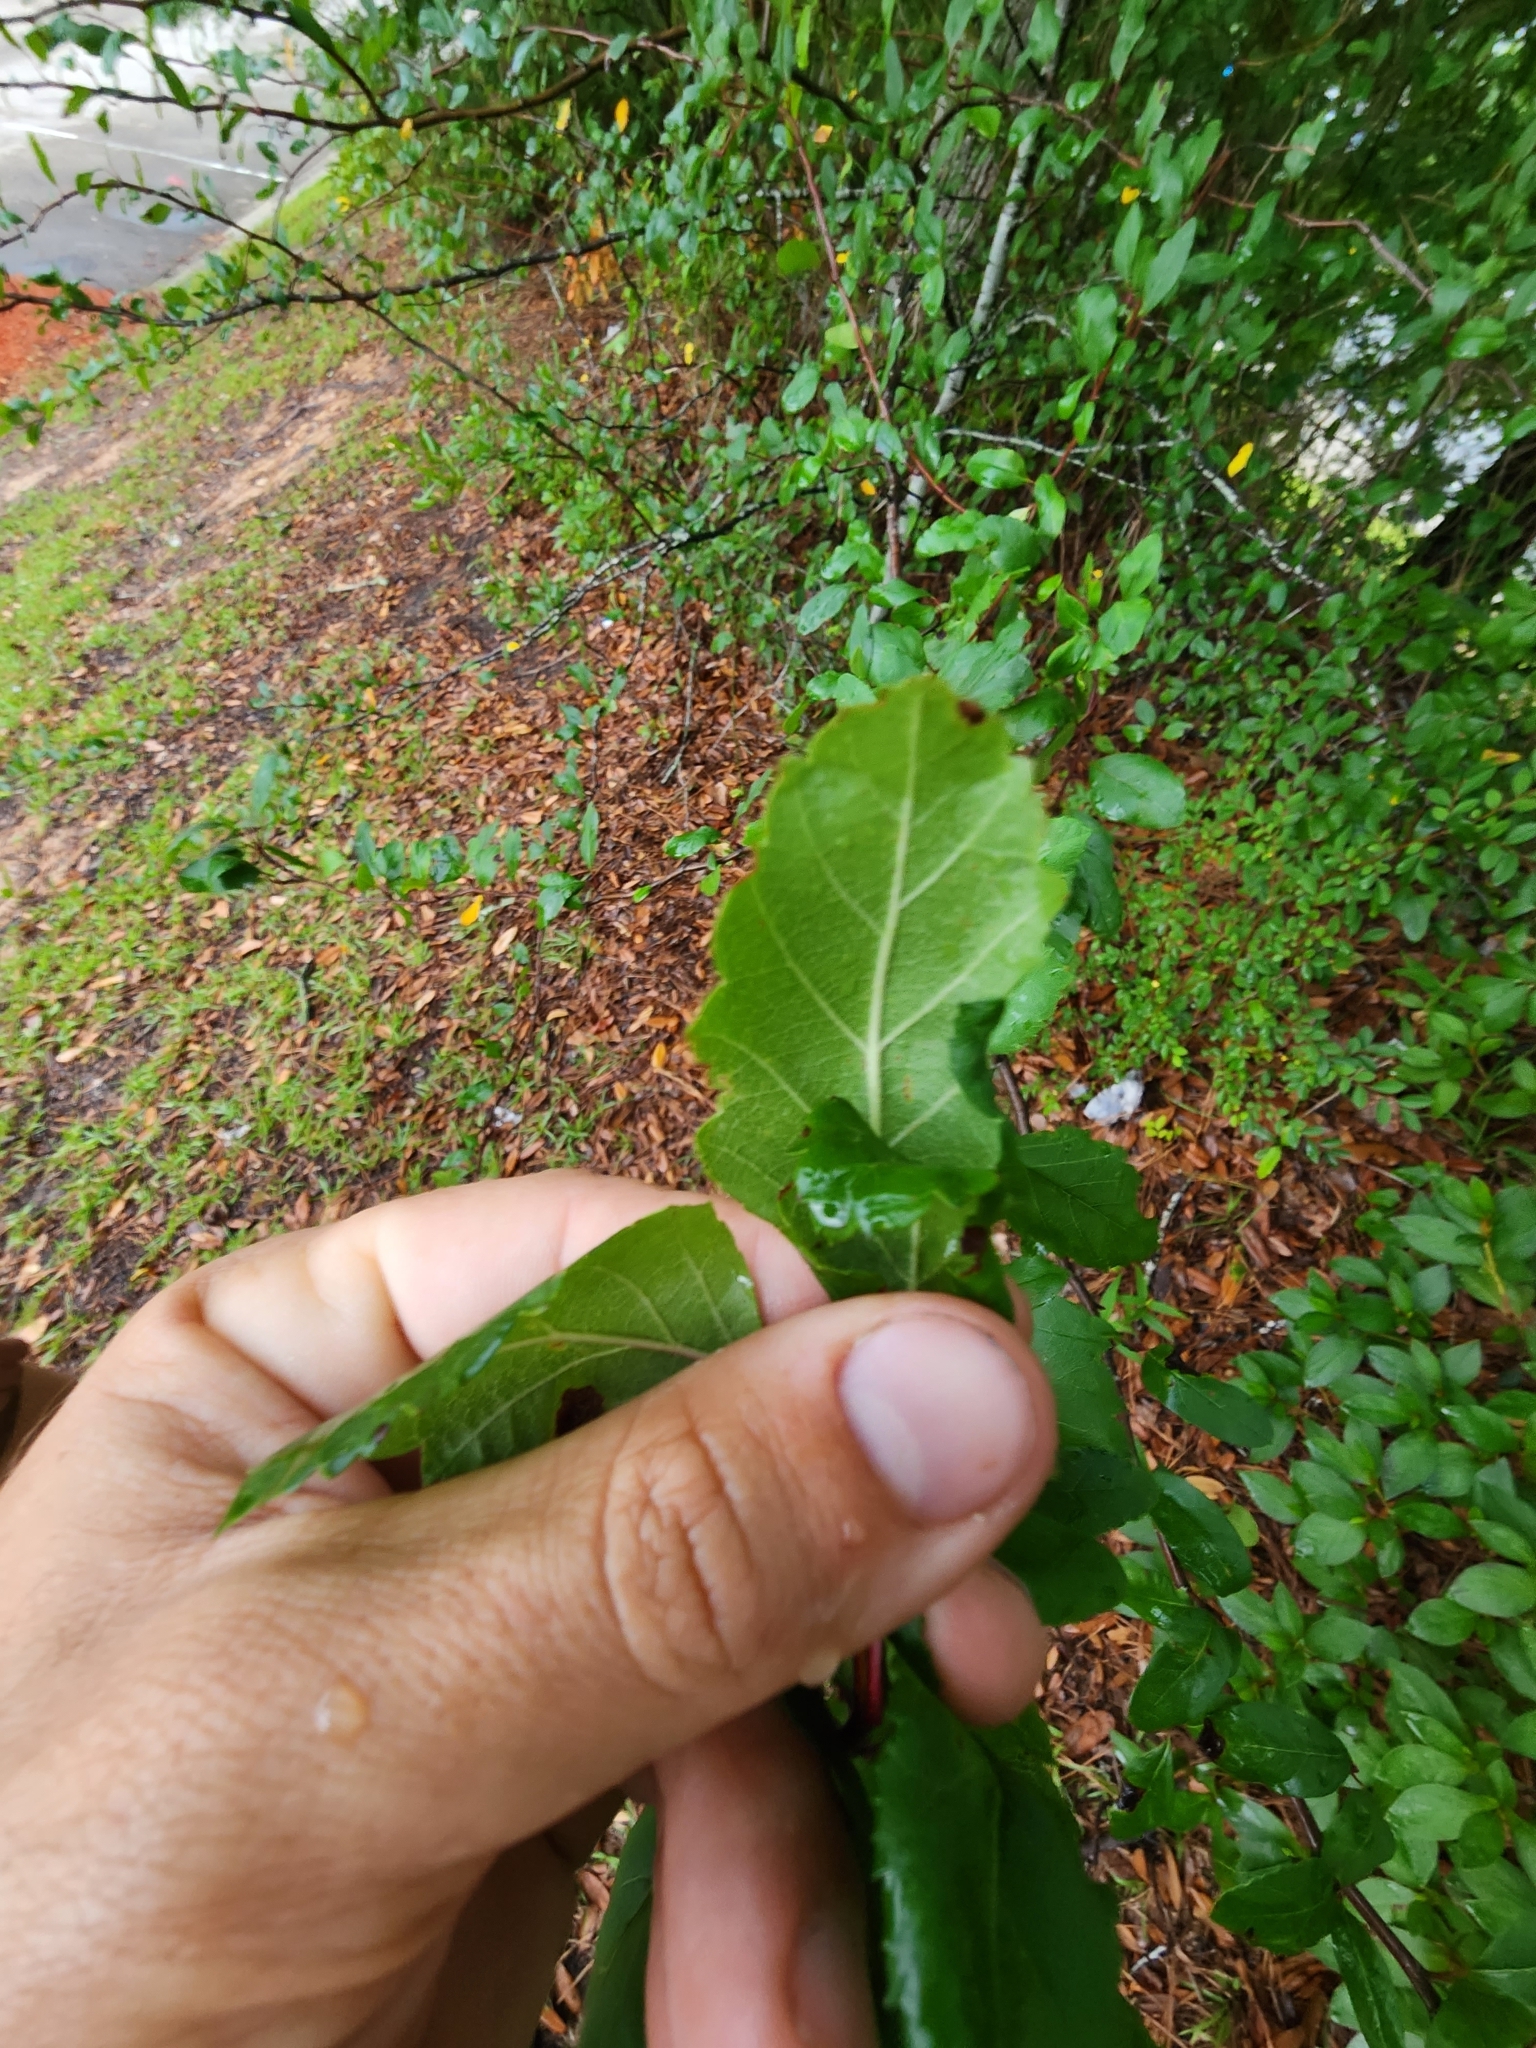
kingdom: Plantae
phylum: Tracheophyta
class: Magnoliopsida
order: Rosales
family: Rosaceae
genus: Malus
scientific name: Malus angustifolia
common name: Southern crab apple
